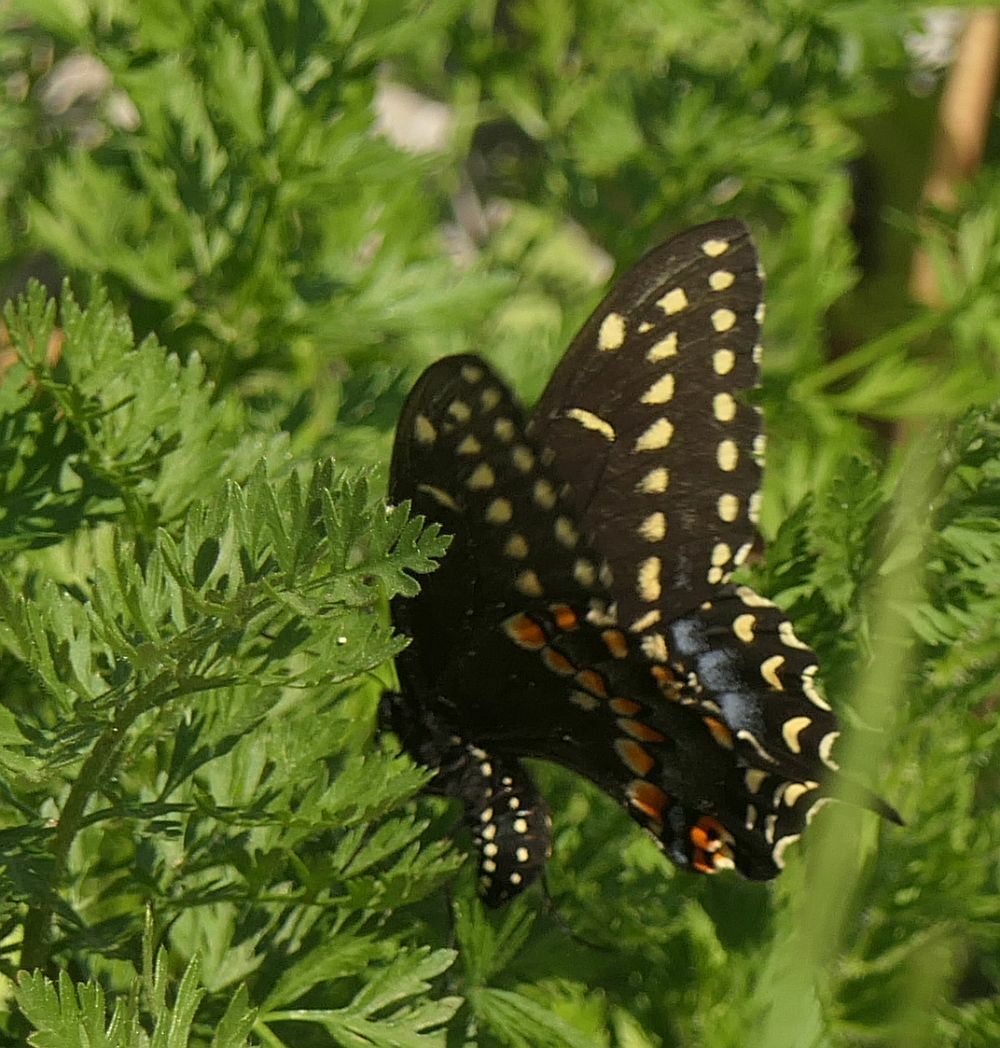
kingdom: Animalia
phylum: Arthropoda
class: Insecta
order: Lepidoptera
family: Papilionidae
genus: Papilio
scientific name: Papilio polyxenes
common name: Black swallowtail
